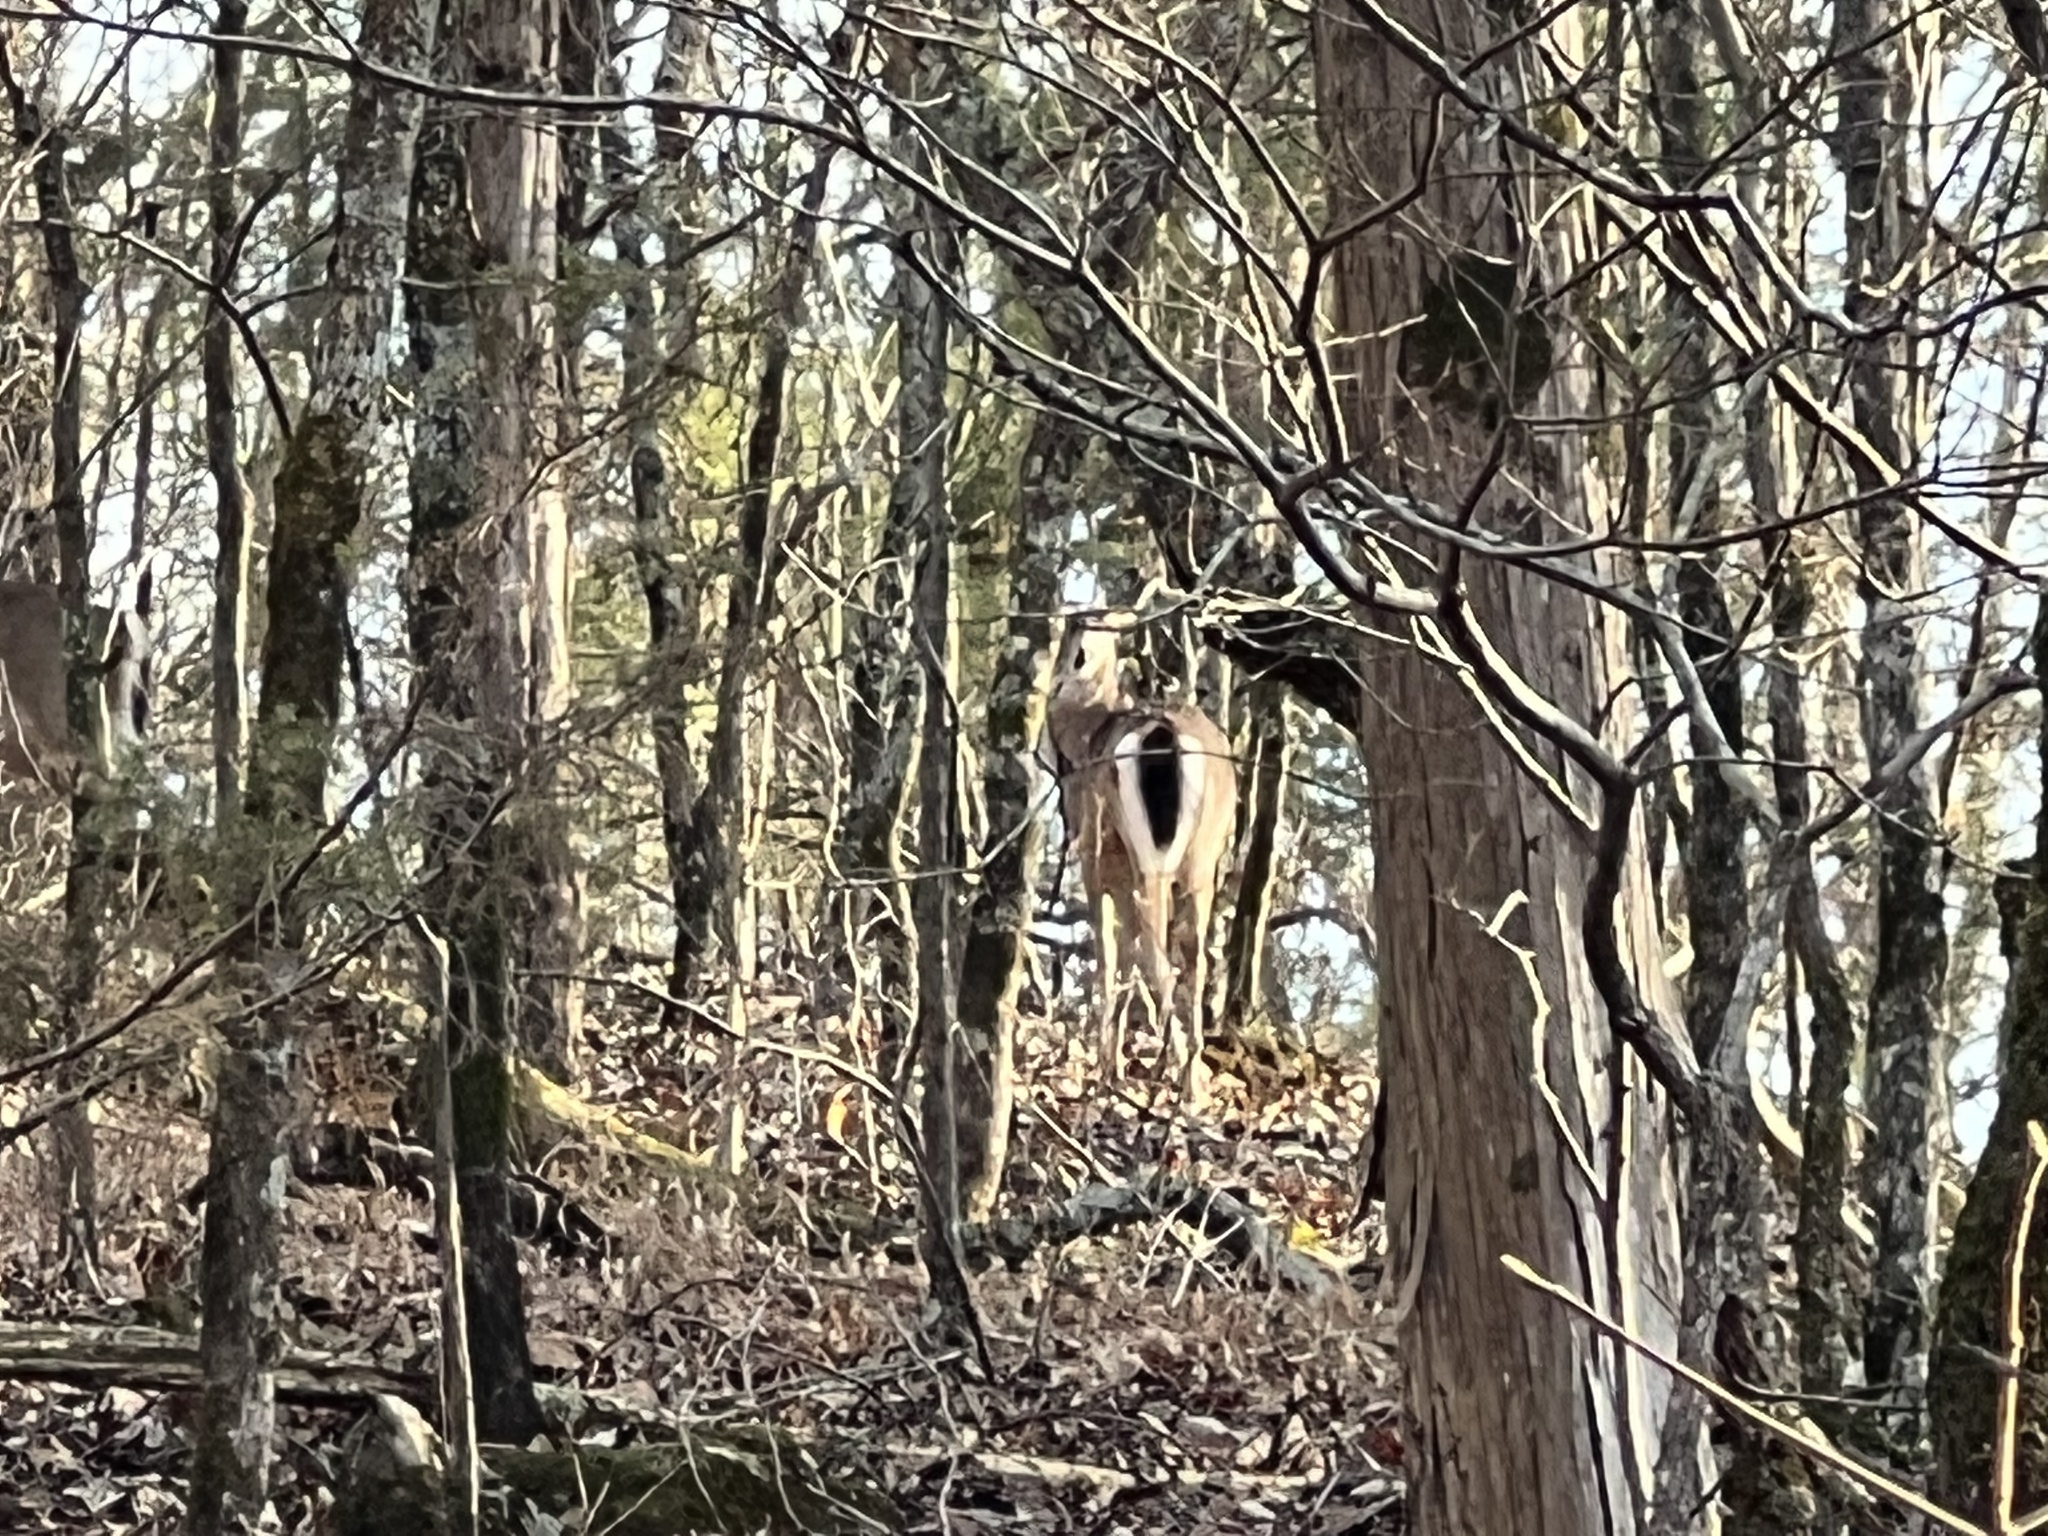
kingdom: Animalia
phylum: Chordata
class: Mammalia
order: Artiodactyla
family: Cervidae
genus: Odocoileus
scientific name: Odocoileus virginianus
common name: White-tailed deer
